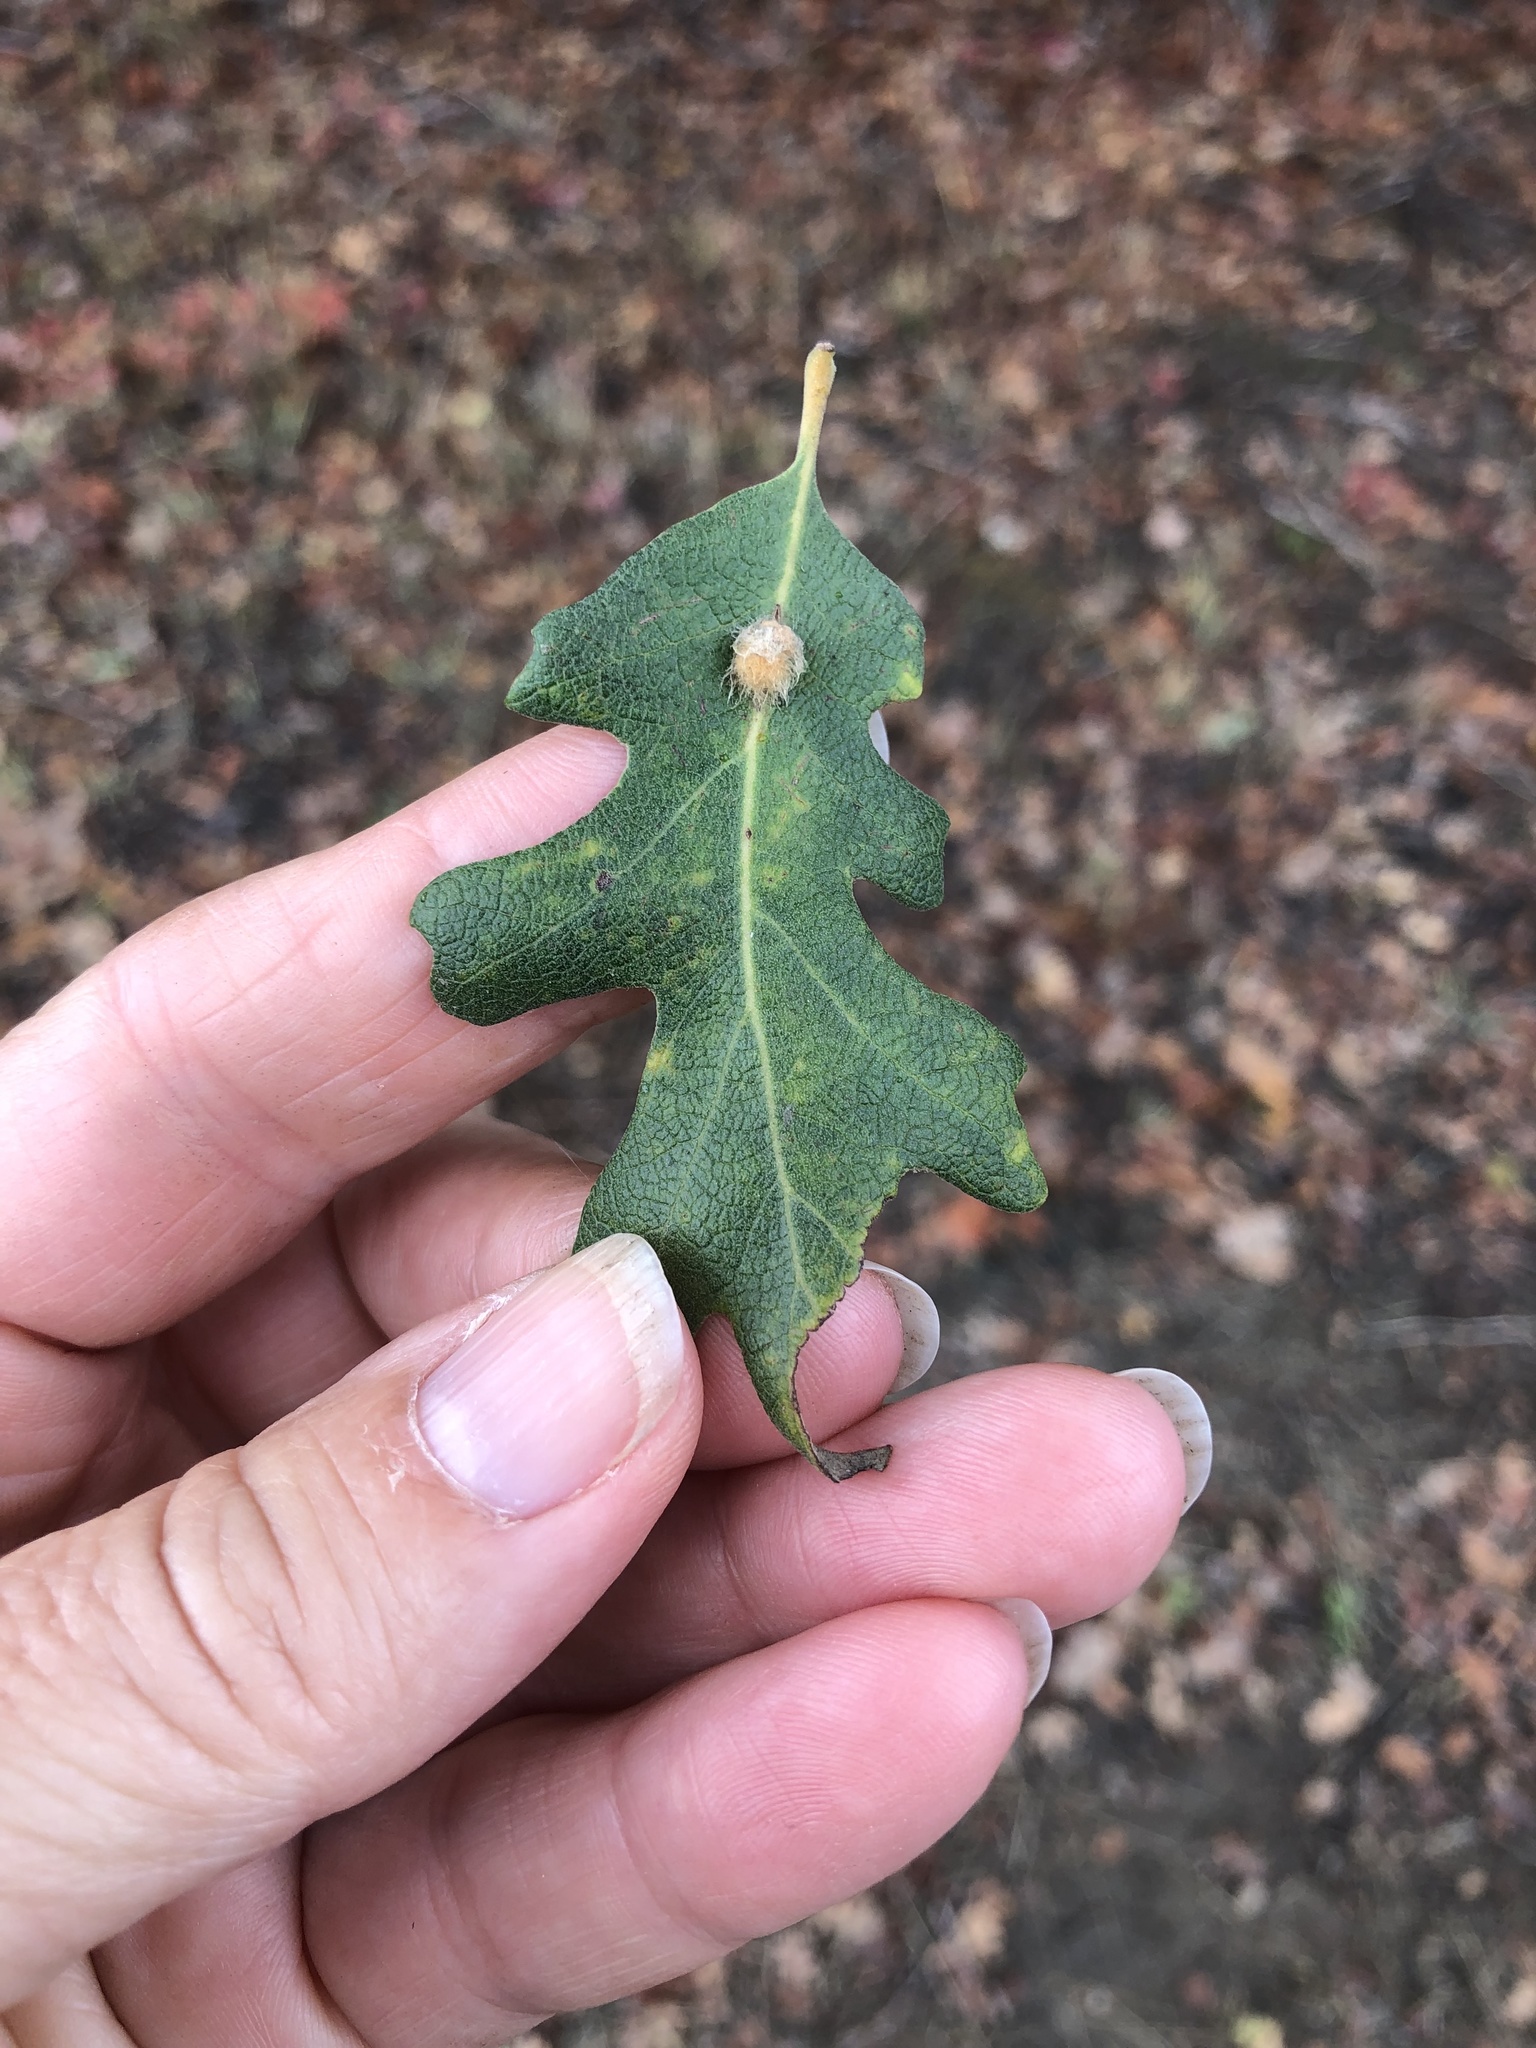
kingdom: Animalia
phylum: Arthropoda
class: Insecta
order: Hymenoptera
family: Cynipidae
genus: Andricus
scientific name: Andricus Druon fullawayi
